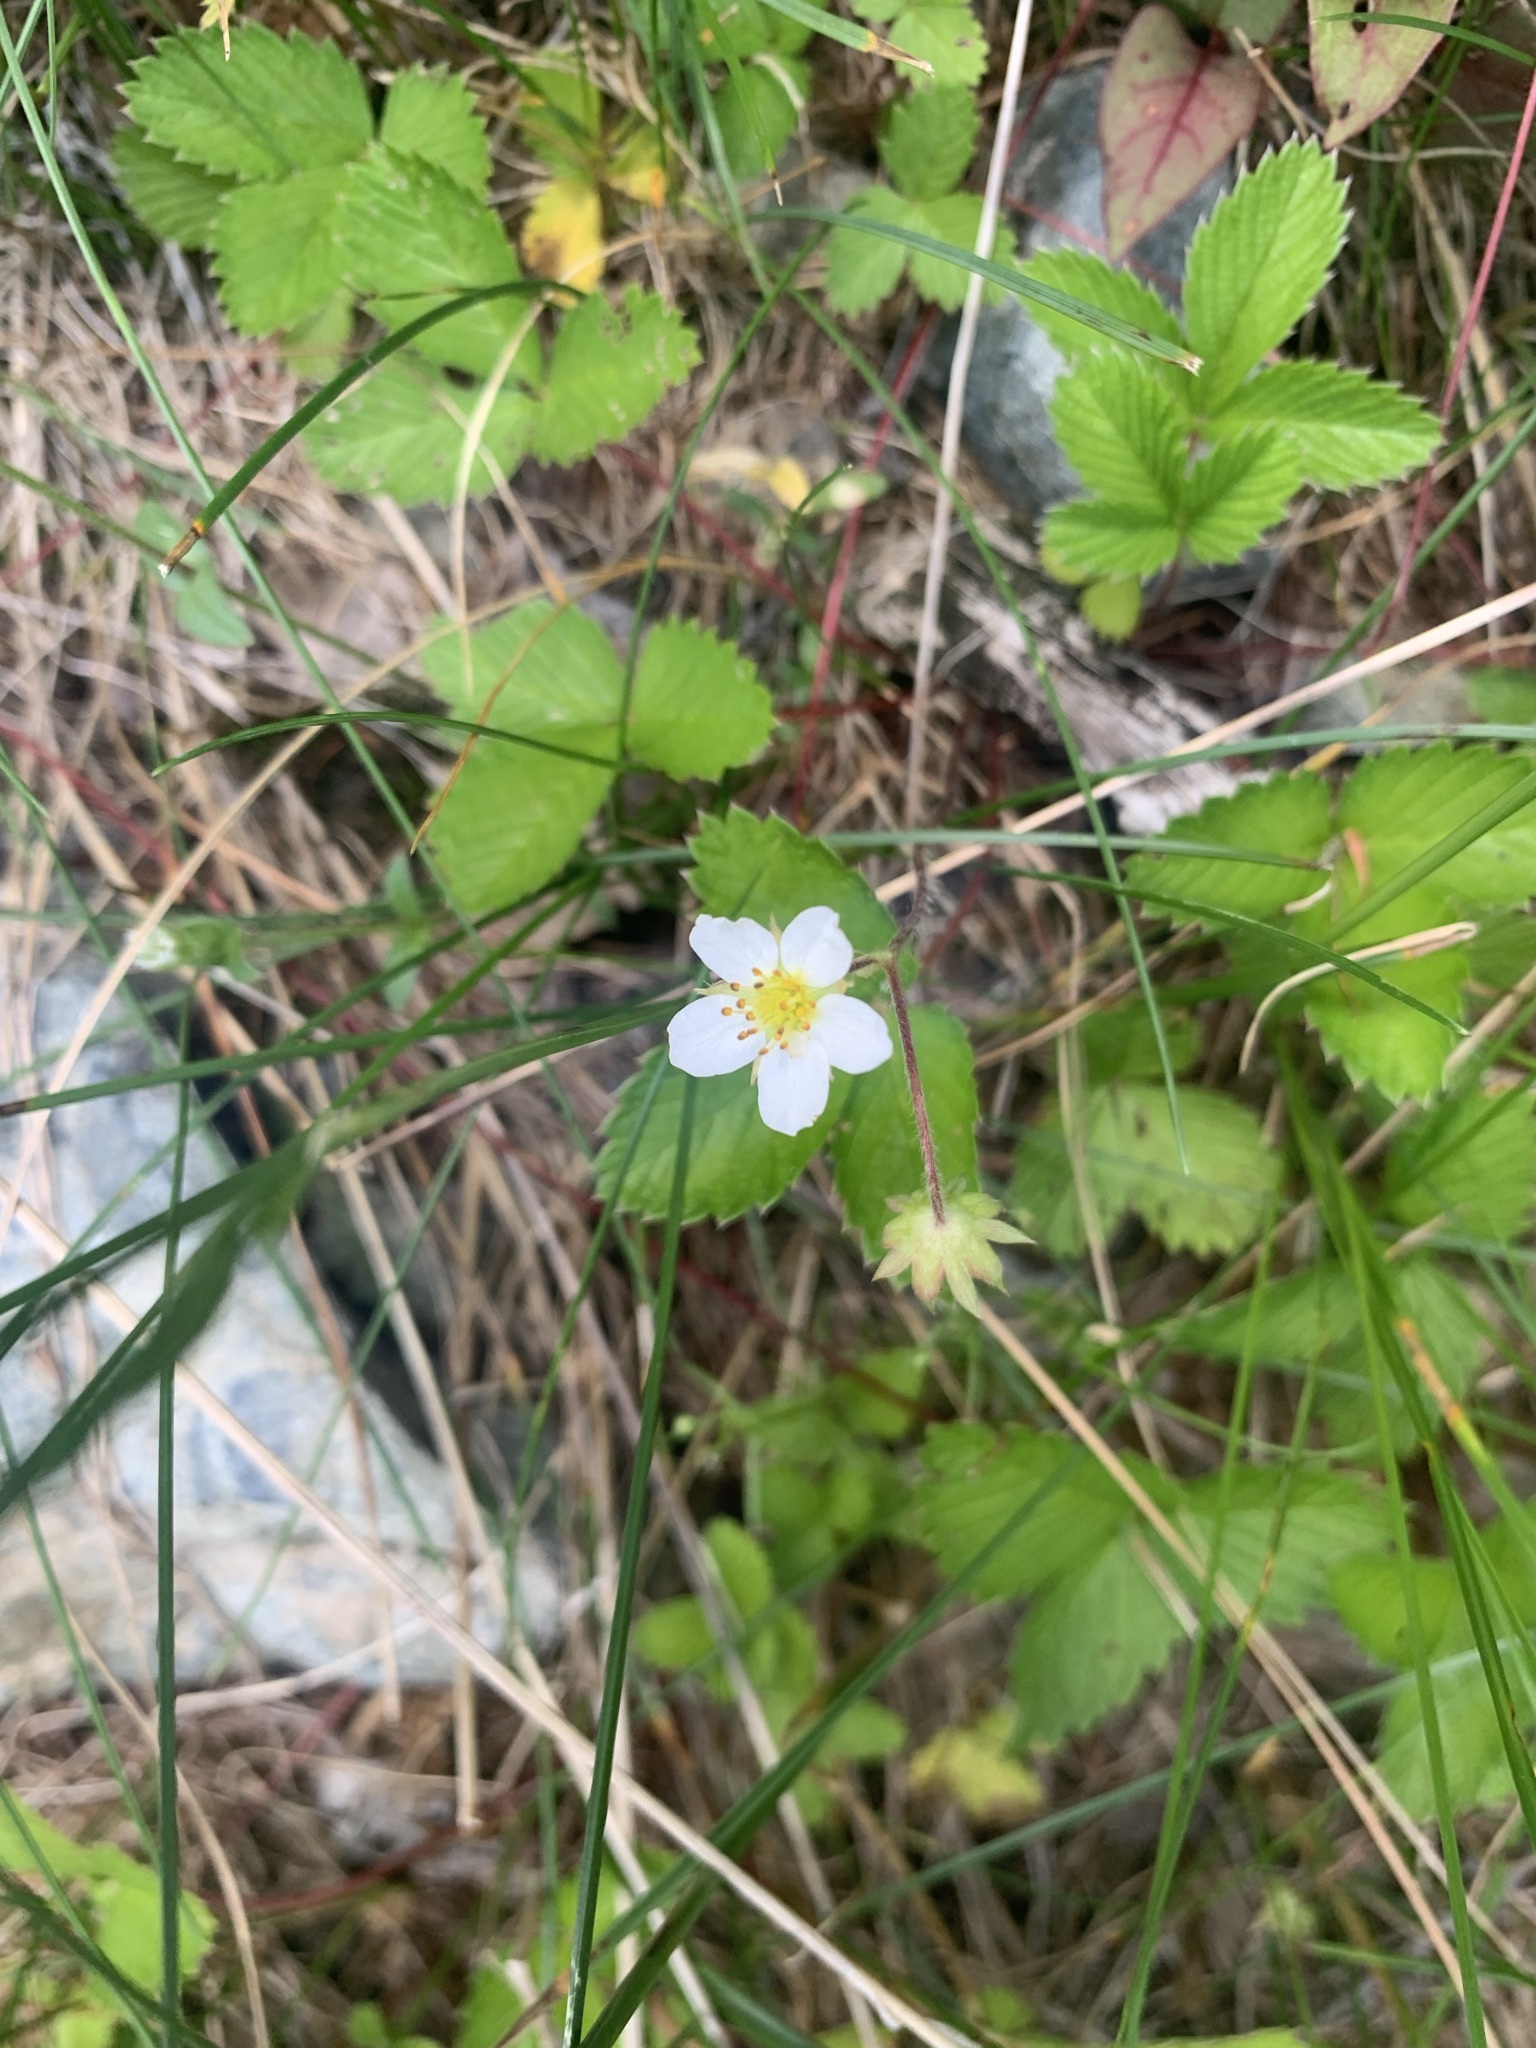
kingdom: Plantae
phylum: Tracheophyta
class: Magnoliopsida
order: Rosales
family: Rosaceae
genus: Fragaria
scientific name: Fragaria nipponica
